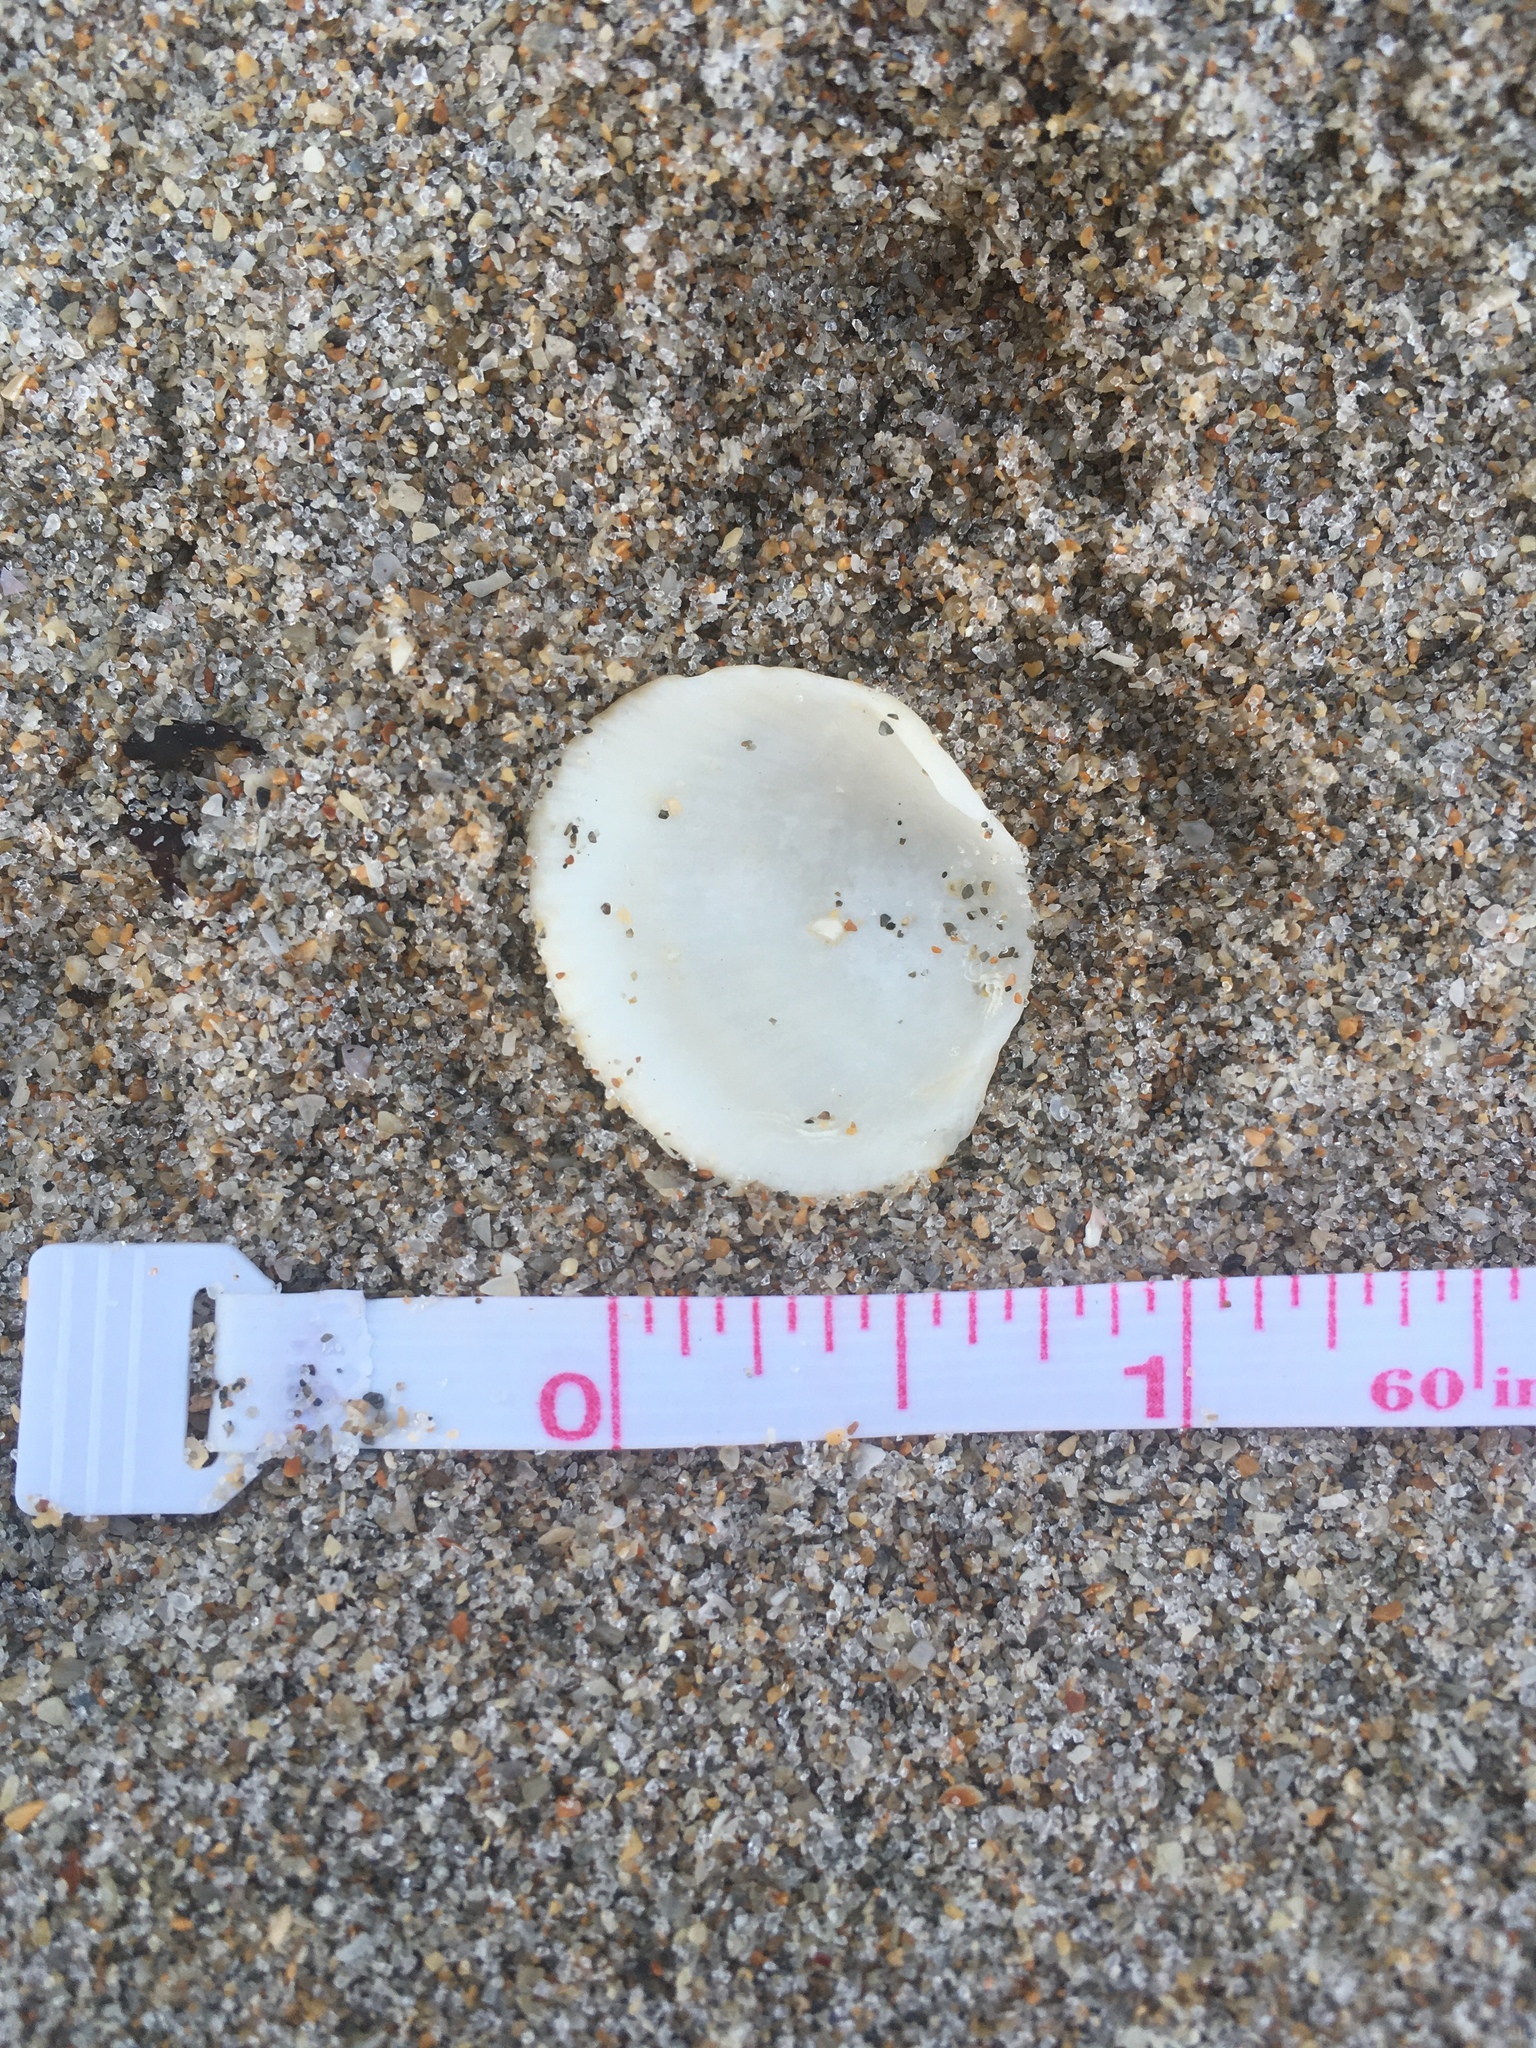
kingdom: Animalia
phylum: Mollusca
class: Bivalvia
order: Arcida
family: Arcidae
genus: Lunarca
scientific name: Lunarca ovalis
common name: Blood ark
